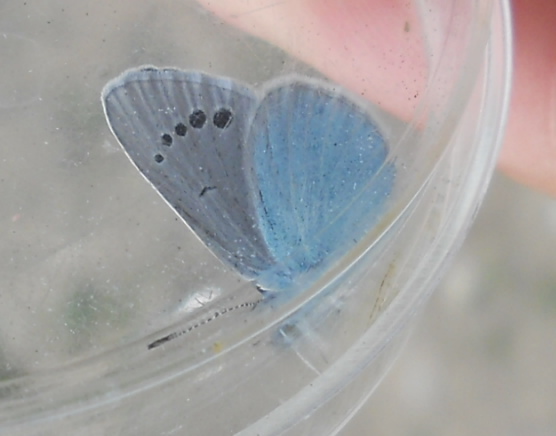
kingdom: Animalia
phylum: Arthropoda
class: Insecta
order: Lepidoptera
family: Lycaenidae
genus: Glaucopsyche
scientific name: Glaucopsyche alexis
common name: Green-underside blue
